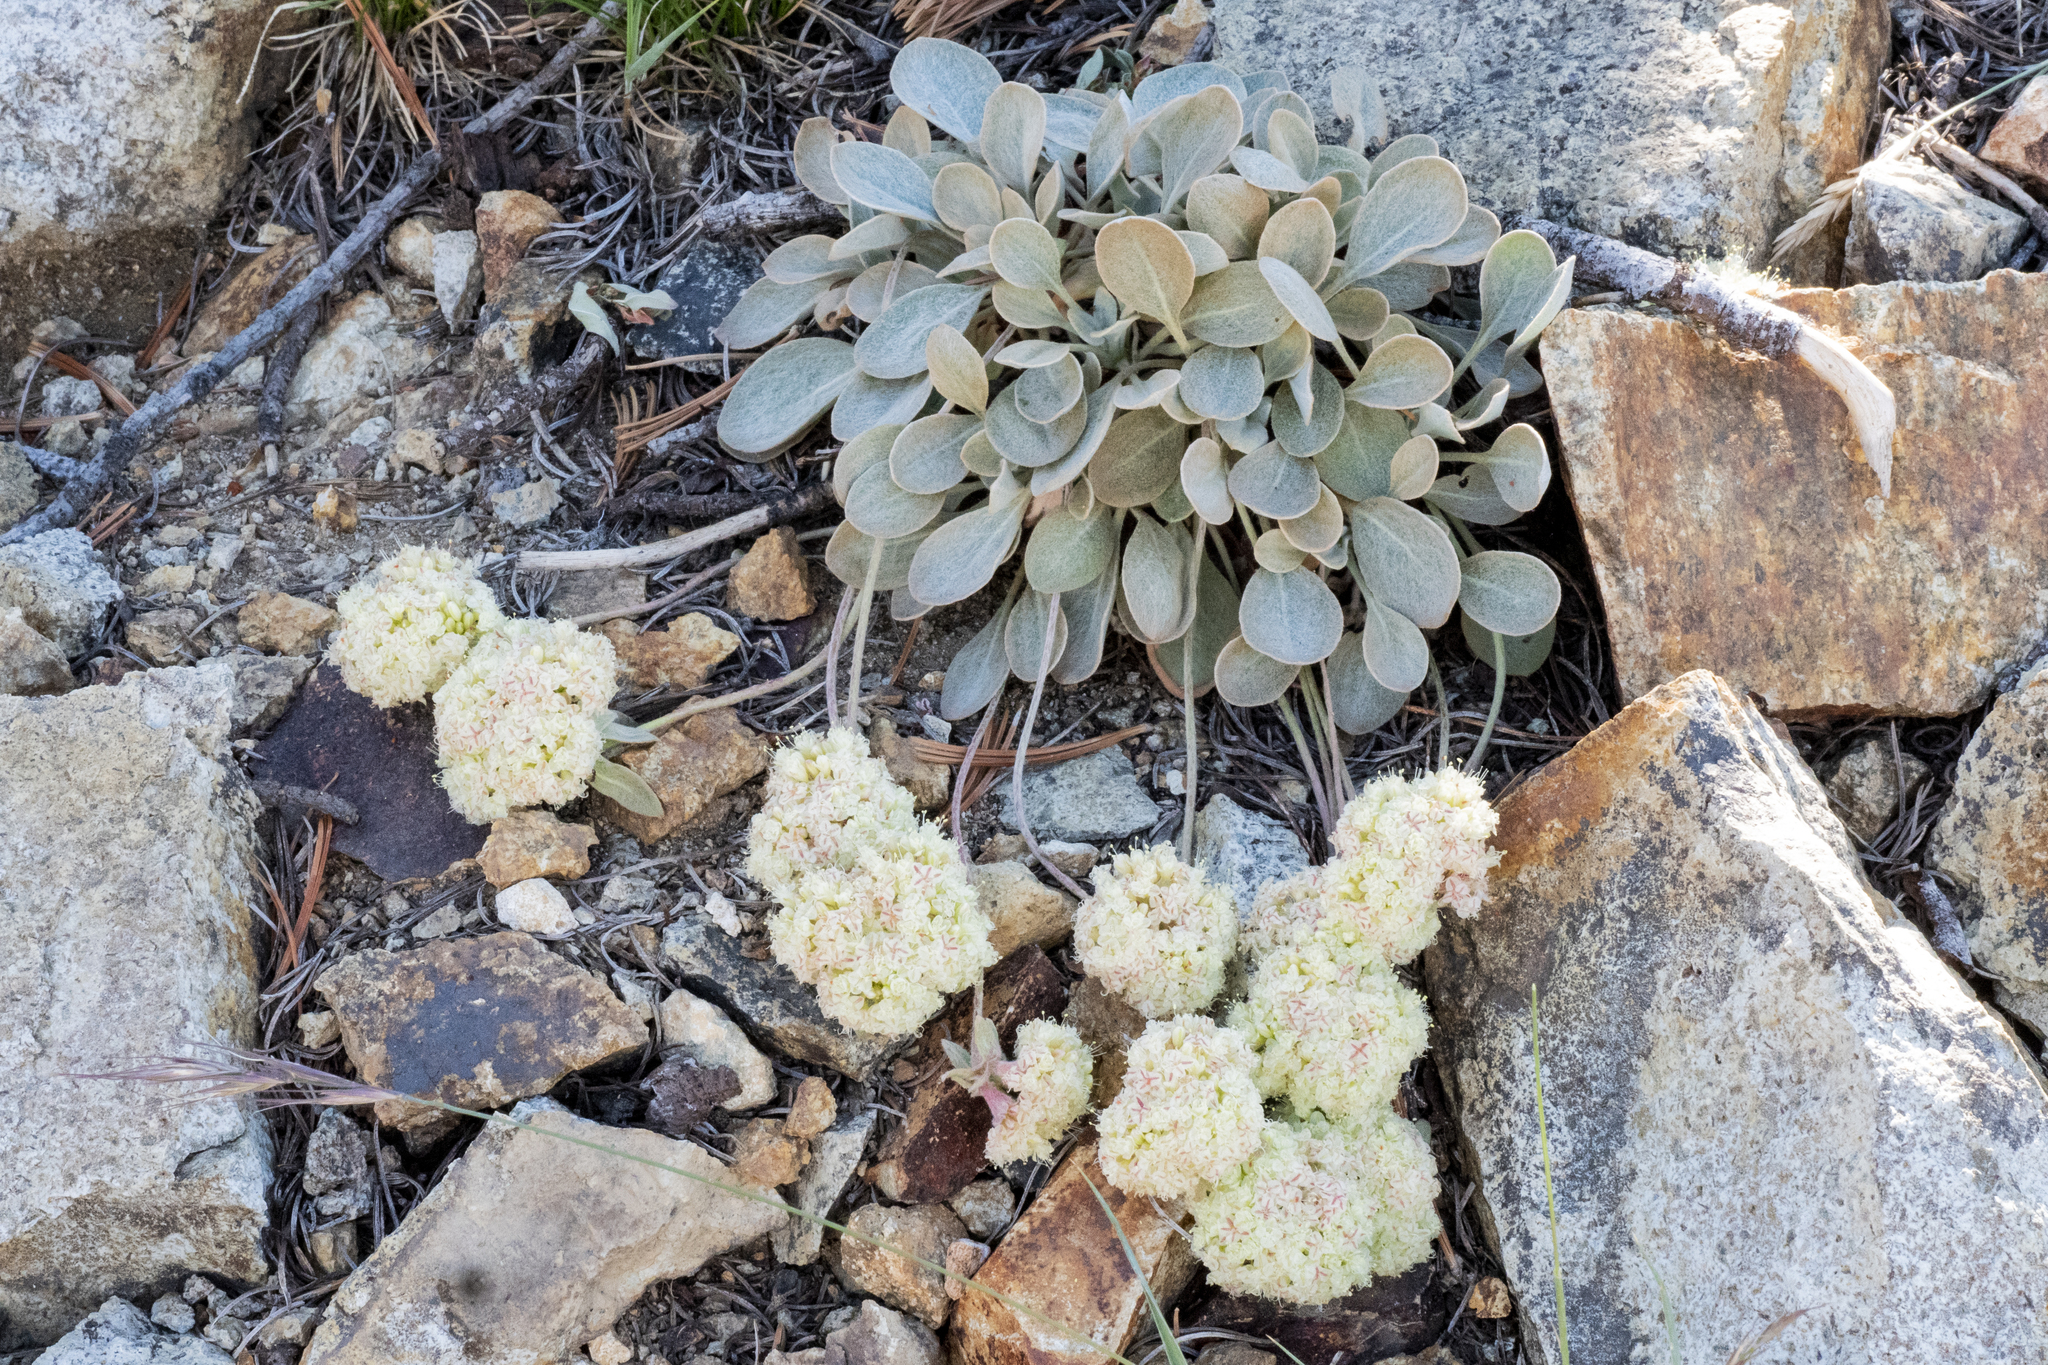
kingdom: Plantae
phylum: Tracheophyta
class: Magnoliopsida
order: Caryophyllales
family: Polygonaceae
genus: Eriogonum
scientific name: Eriogonum lobbii
